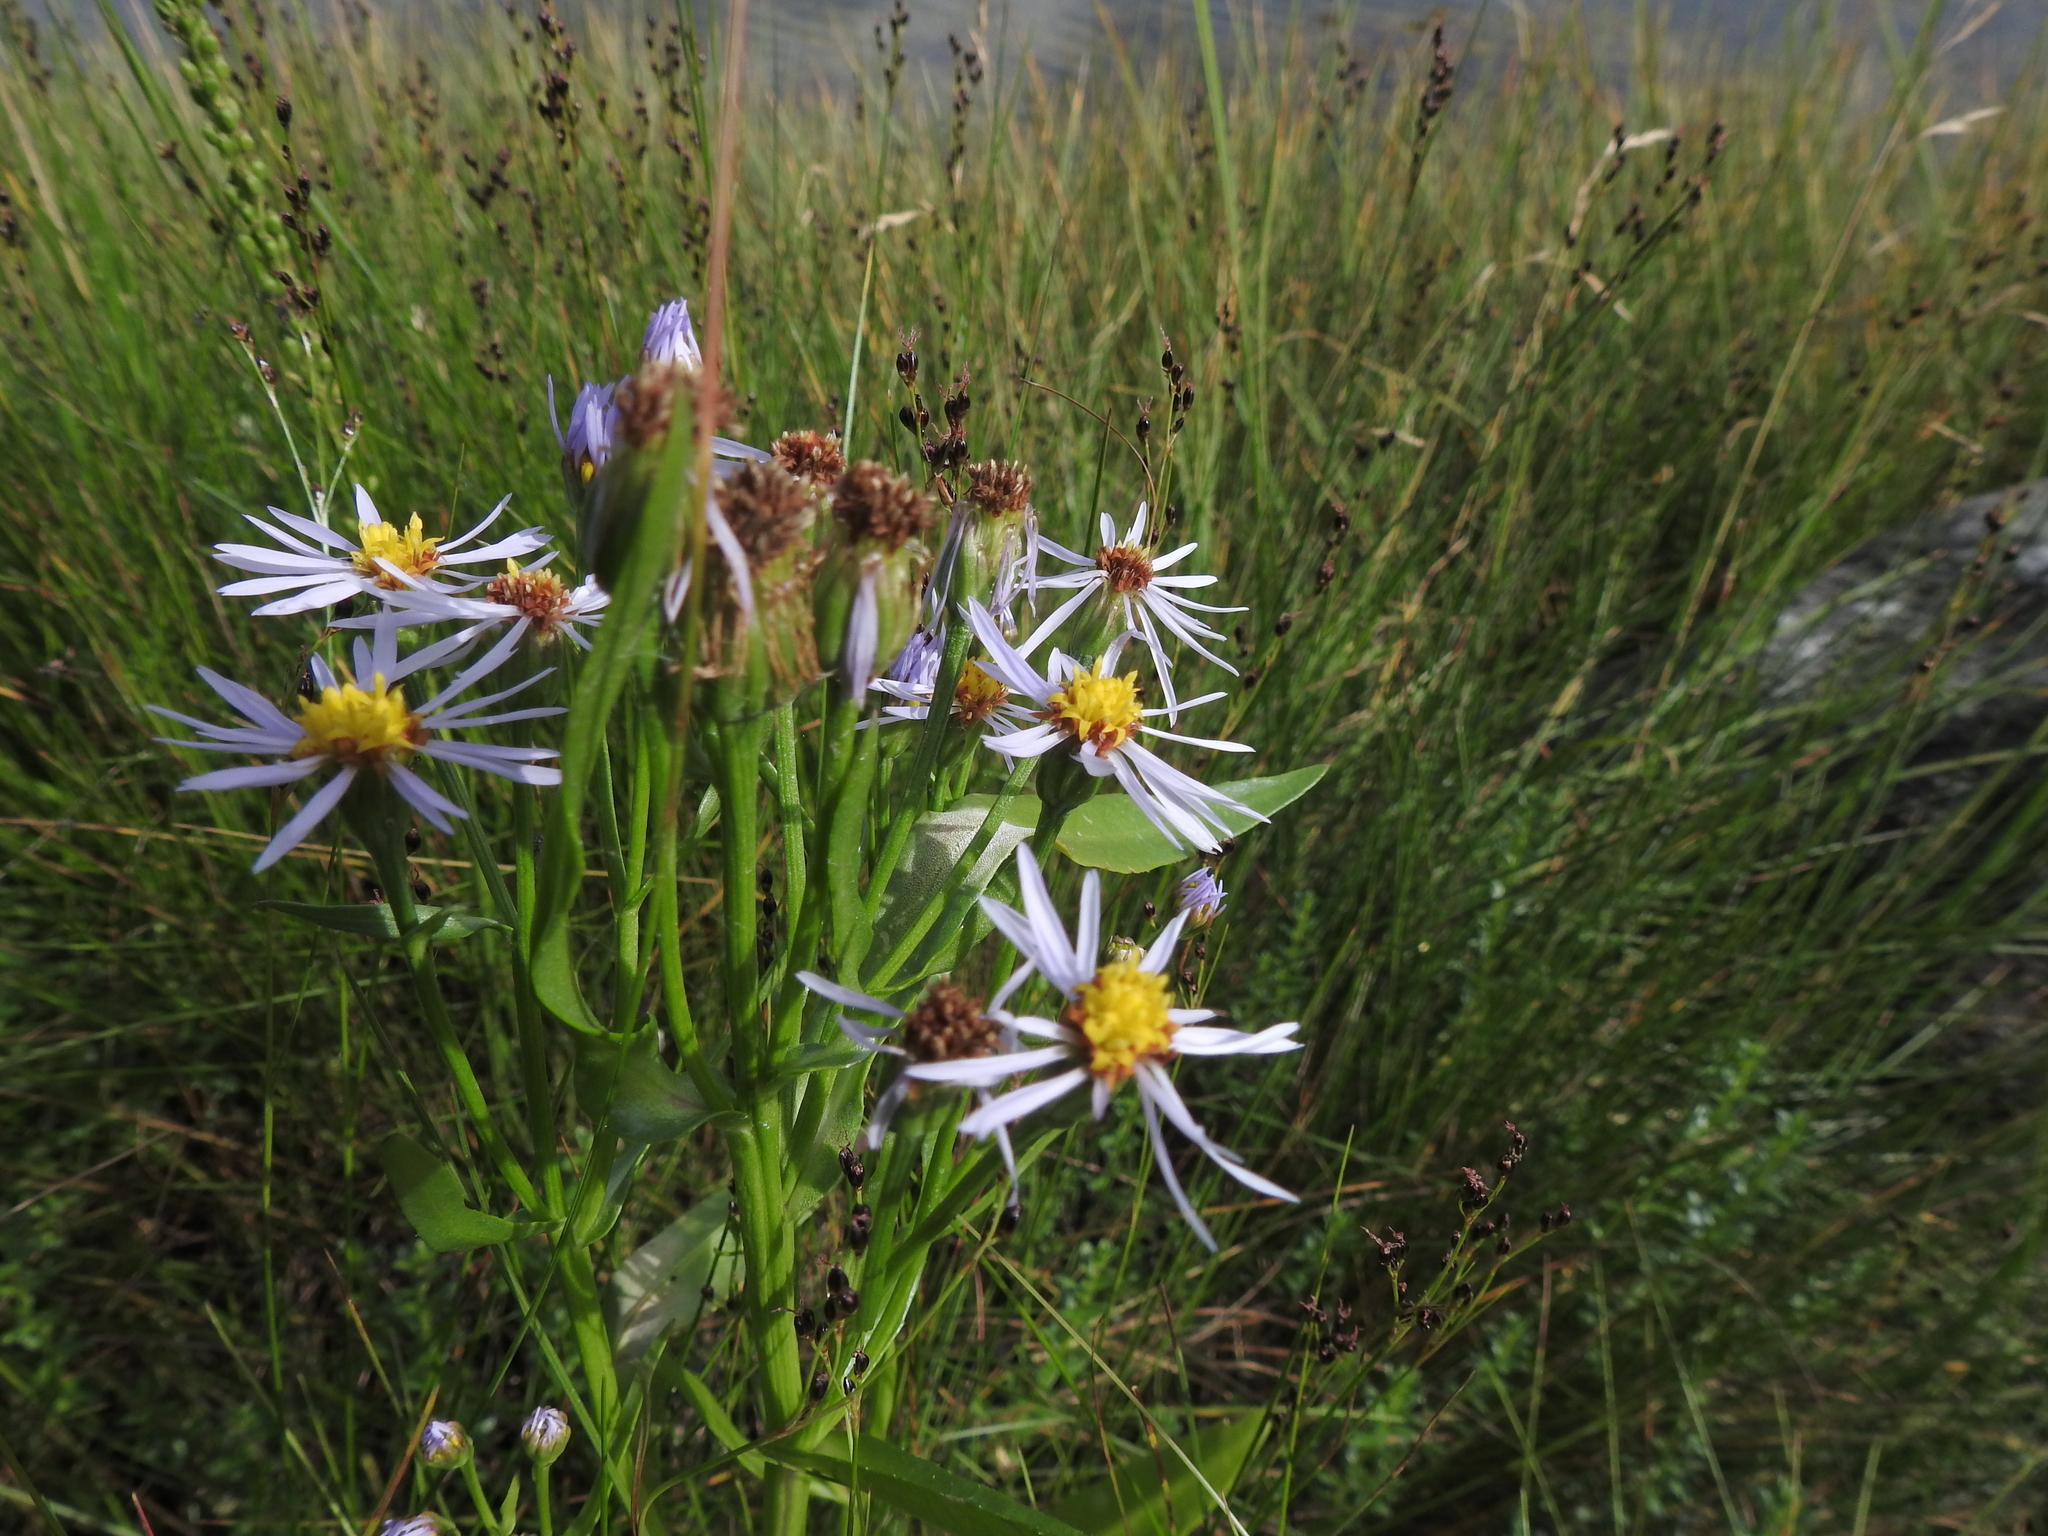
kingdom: Plantae
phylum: Tracheophyta
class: Magnoliopsida
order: Asterales
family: Asteraceae
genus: Tripolium
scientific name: Tripolium pannonicum
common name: Sea aster
